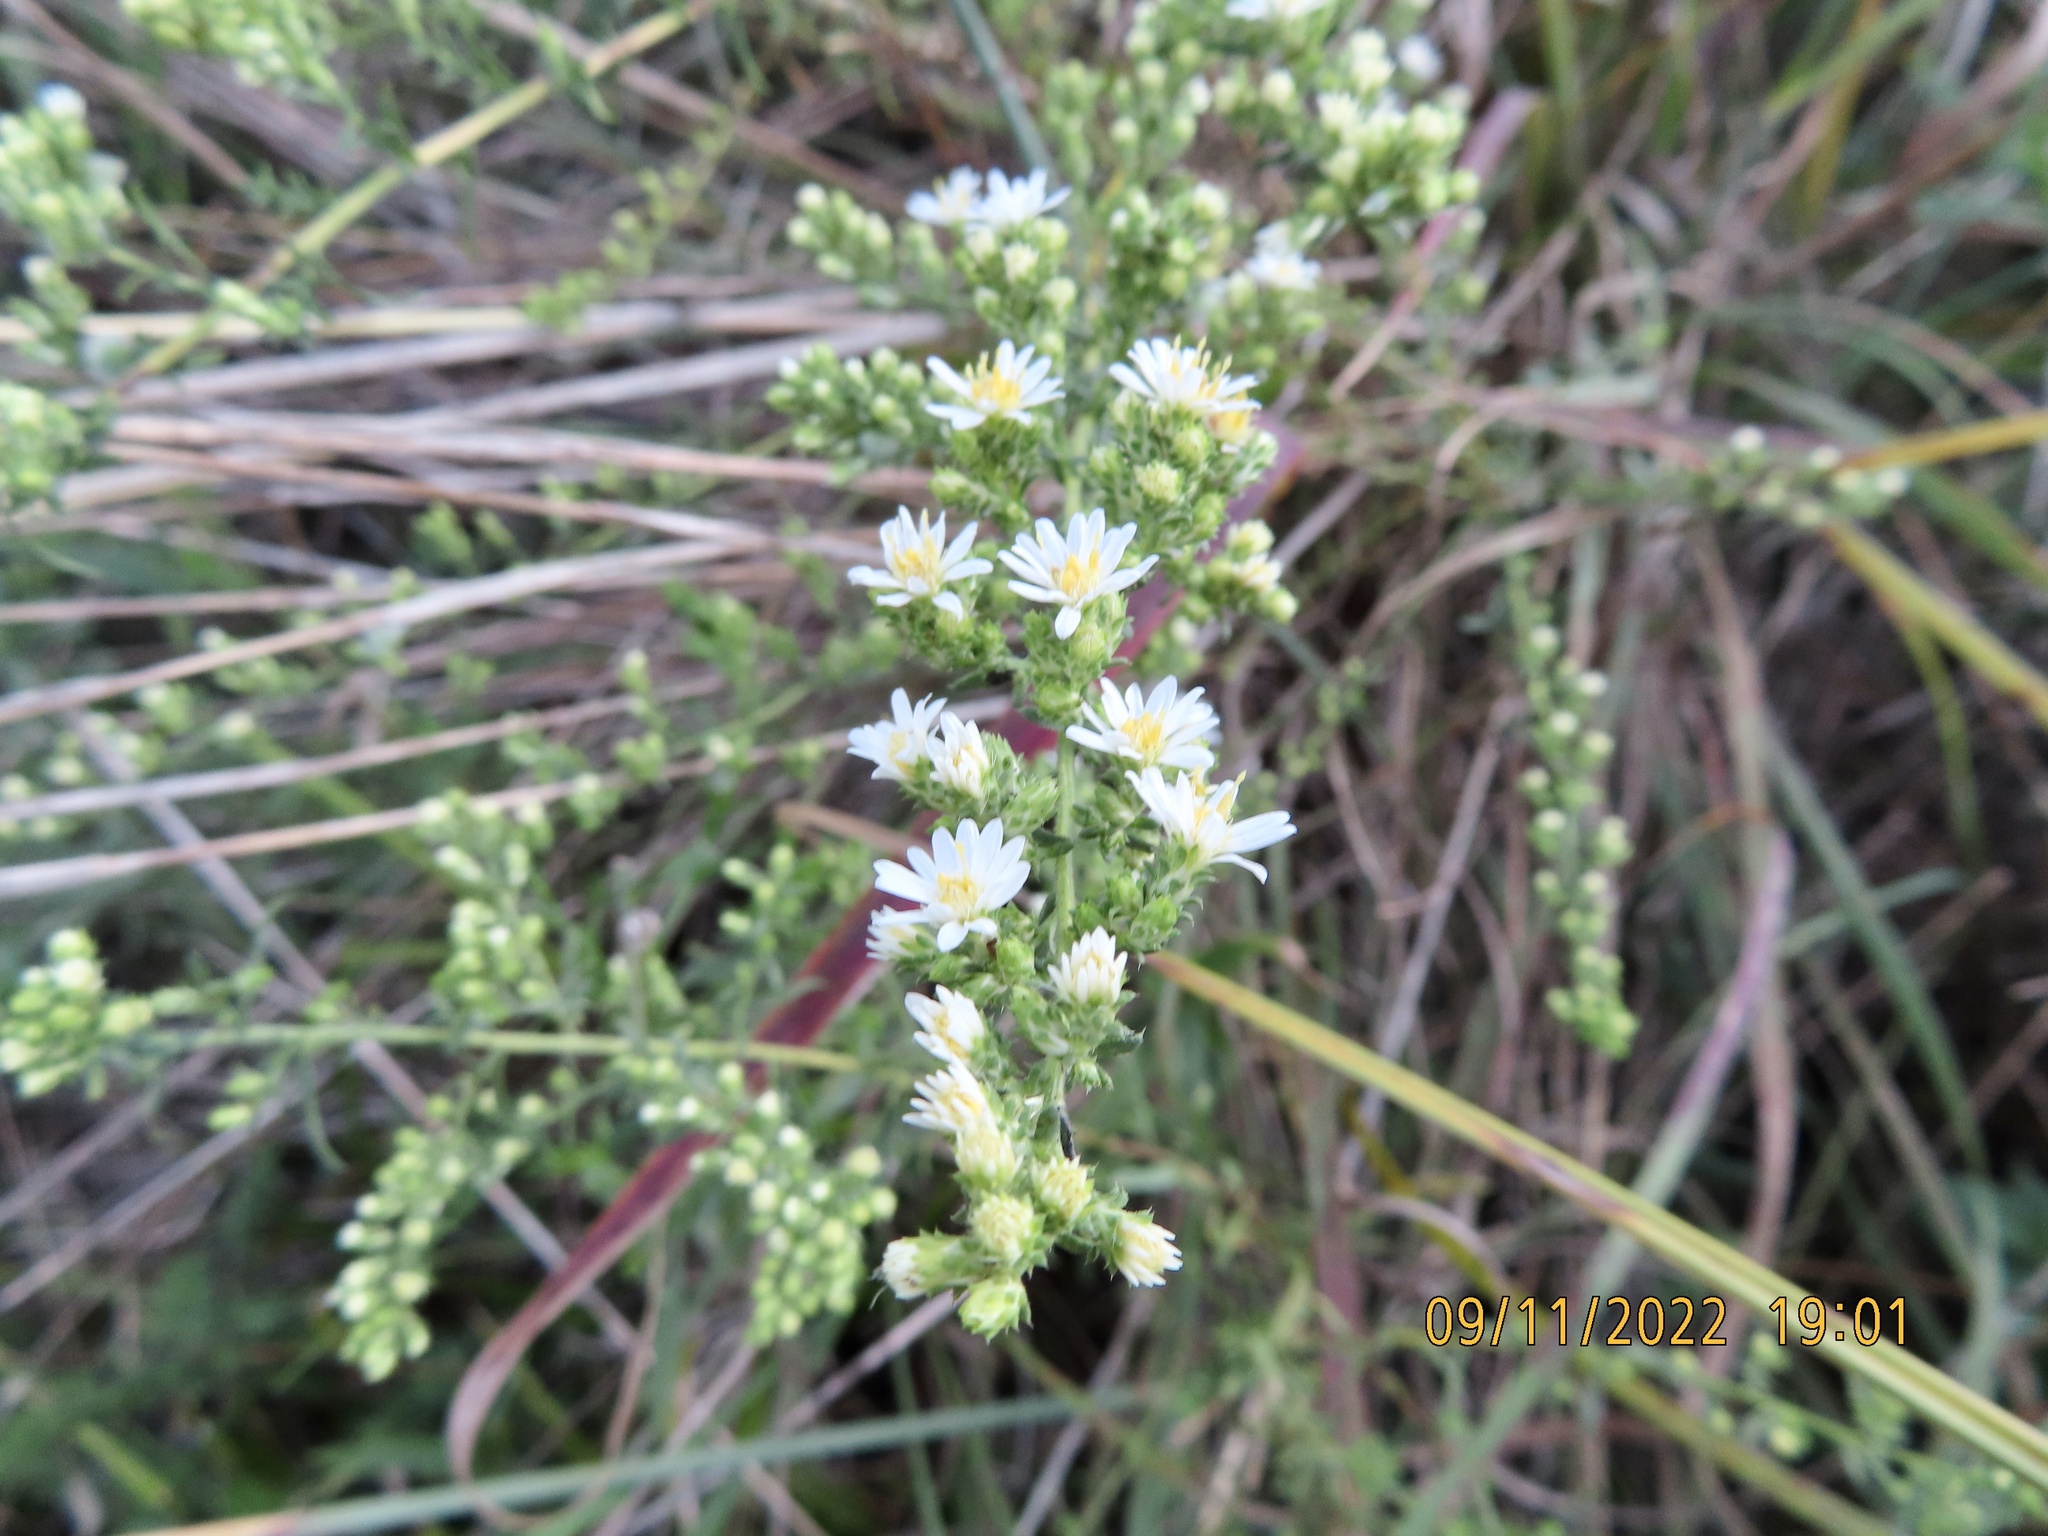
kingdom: Plantae
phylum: Tracheophyta
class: Magnoliopsida
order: Asterales
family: Asteraceae
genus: Symphyotrichum
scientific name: Symphyotrichum ericoides
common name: Heath aster
